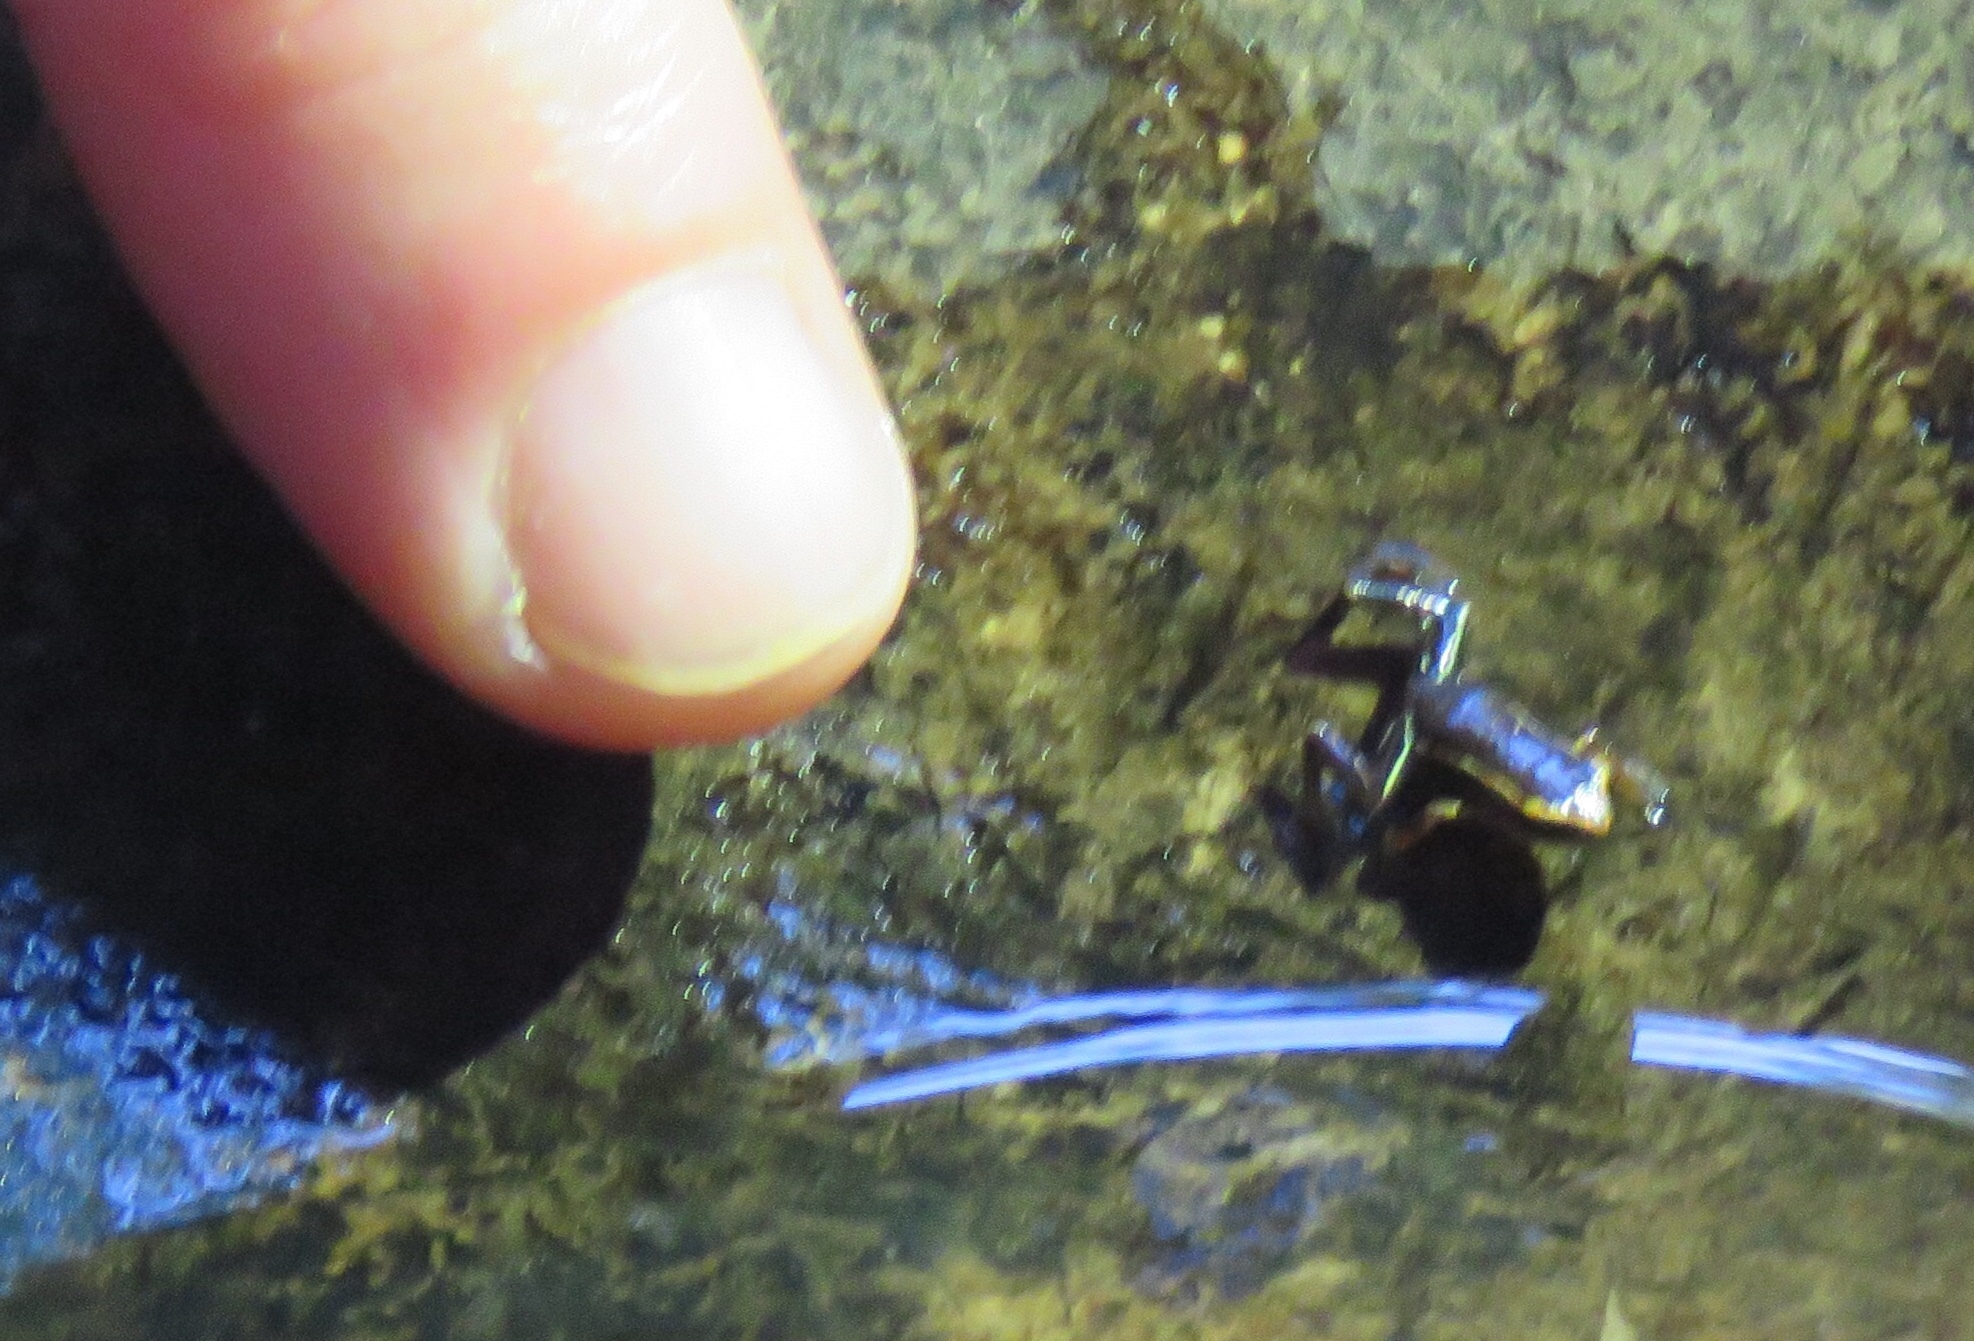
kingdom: Animalia
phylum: Chordata
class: Amphibia
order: Anura
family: Eleutherodactylidae
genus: Eleutherodactylus
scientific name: Eleutherodactylus iberia
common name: Monte iberia dwarf frog
